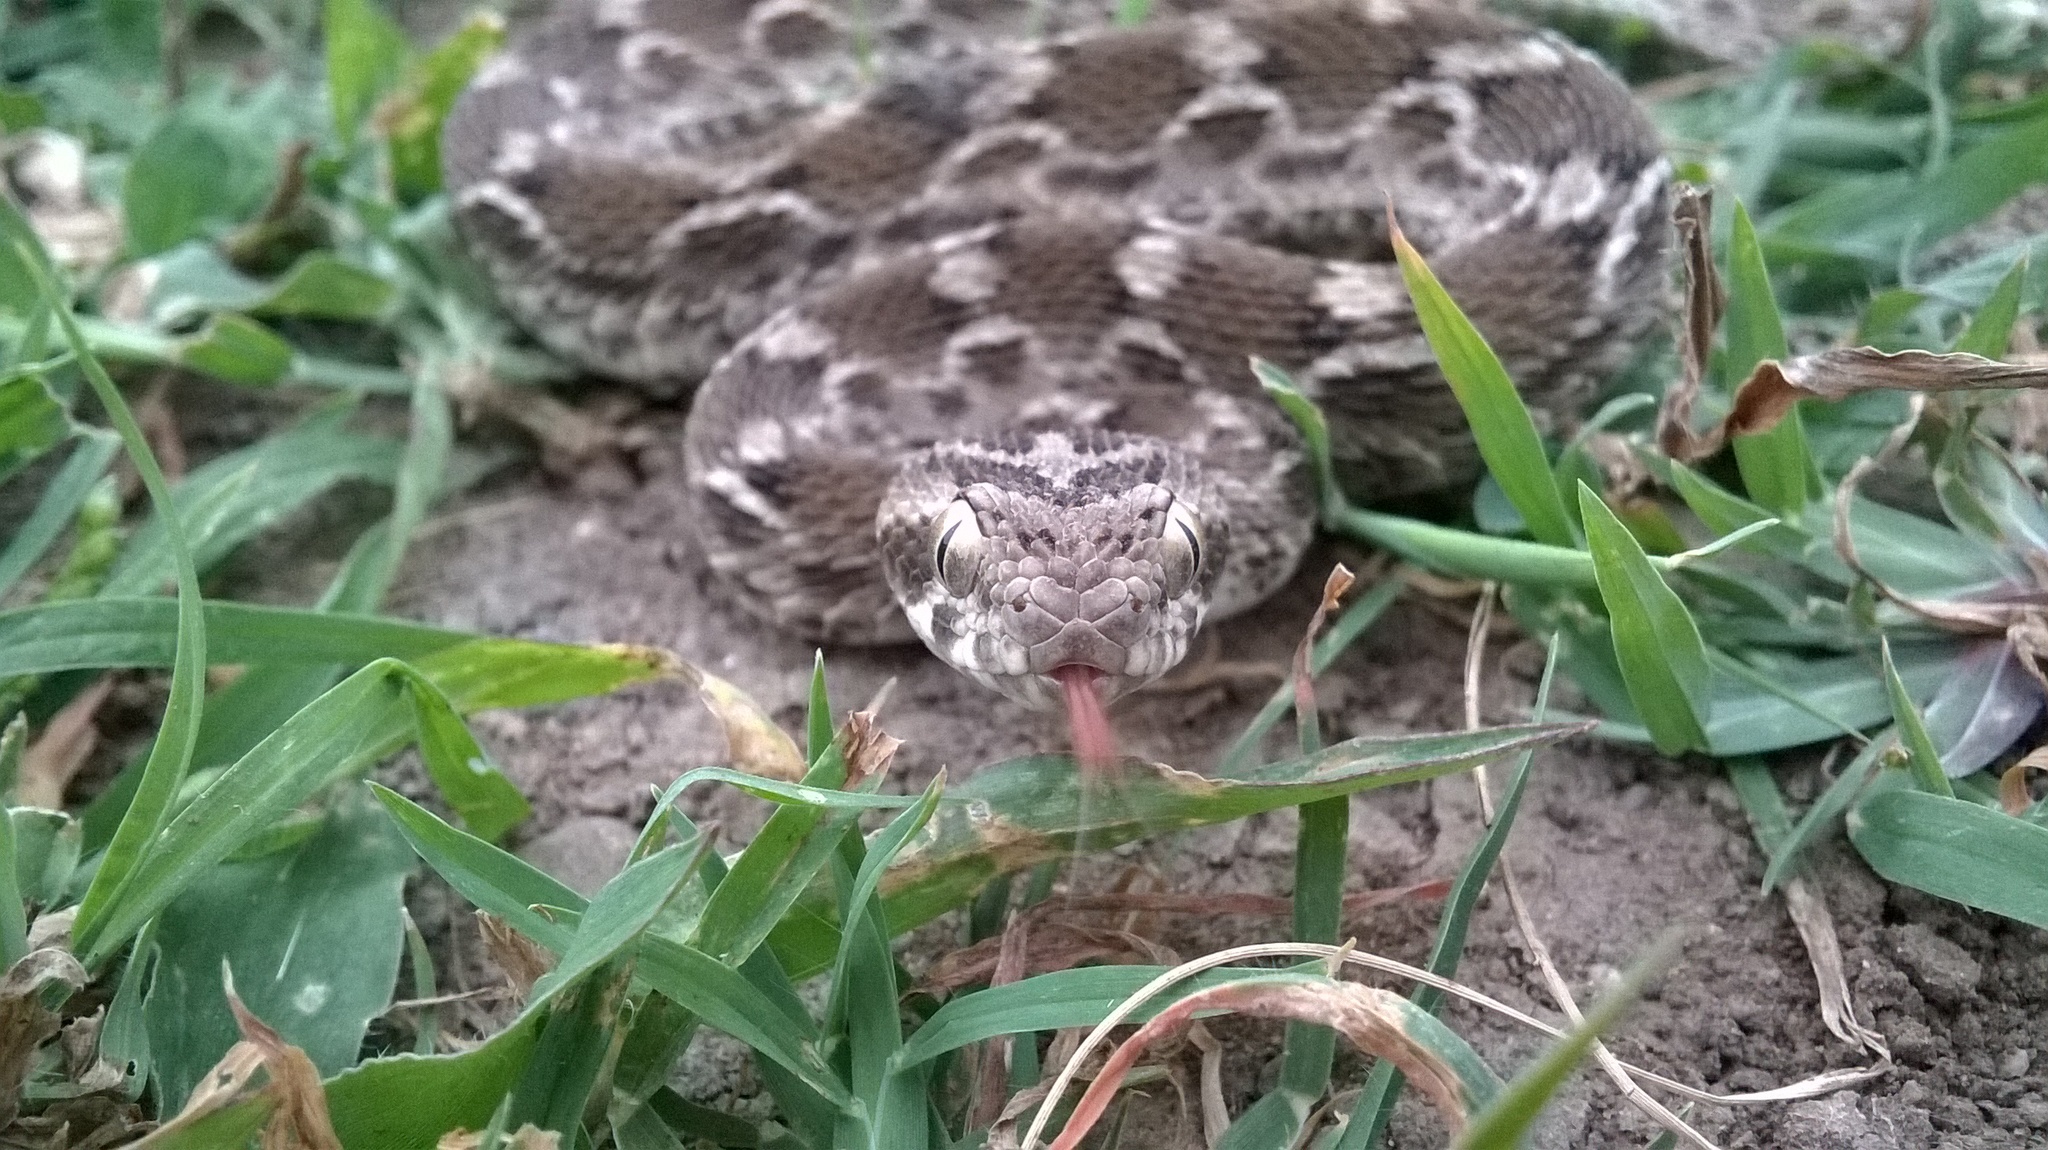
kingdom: Animalia
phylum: Chordata
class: Squamata
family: Viperidae
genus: Echis
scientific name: Echis carinatus
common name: Saw-scaled viper
